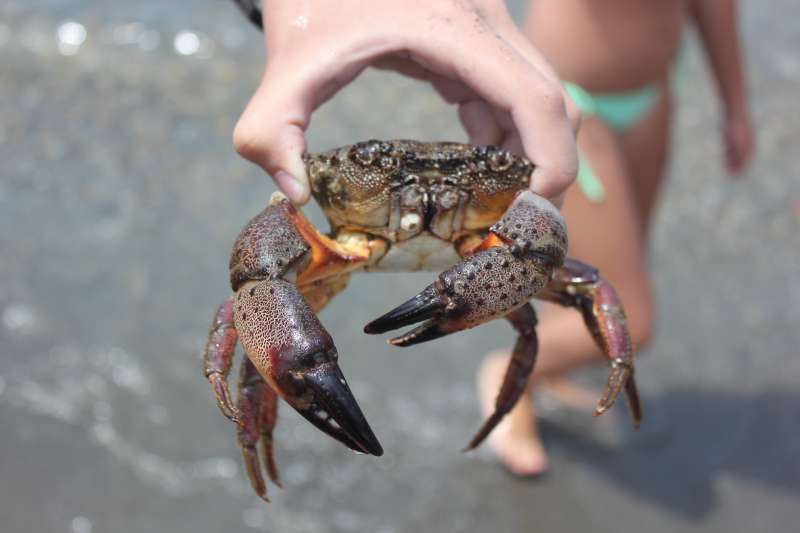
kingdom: Animalia
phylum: Arthropoda
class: Malacostraca
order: Decapoda
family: Eriphiidae
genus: Eriphia
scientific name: Eriphia verrucosa
